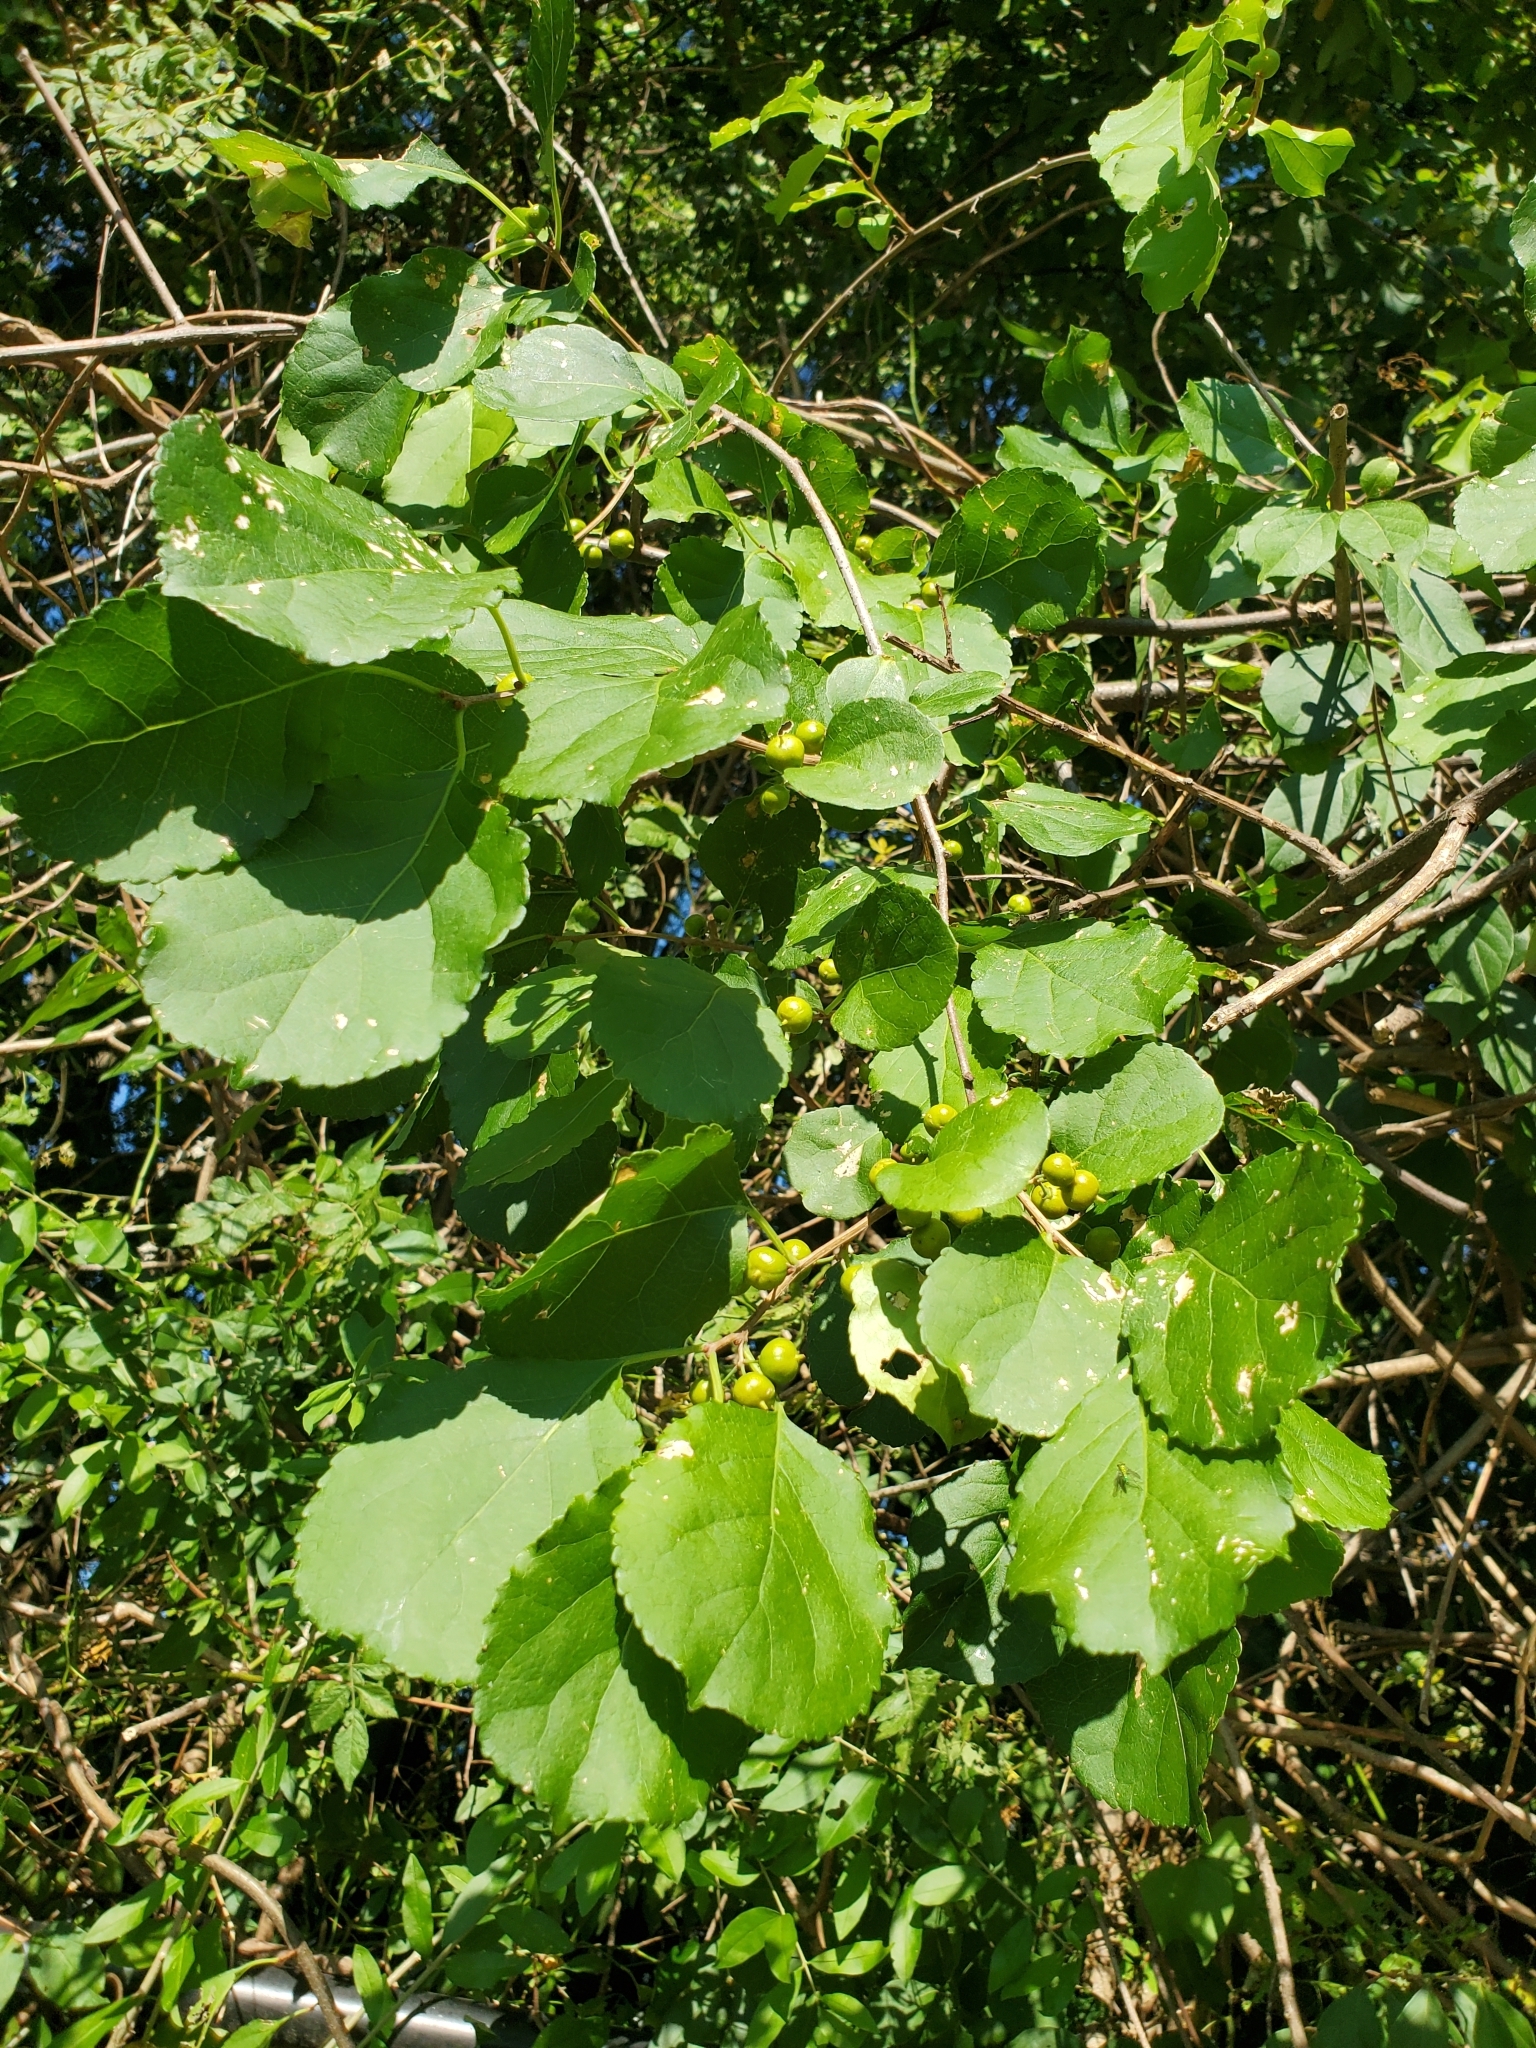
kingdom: Plantae
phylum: Tracheophyta
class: Magnoliopsida
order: Celastrales
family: Celastraceae
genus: Celastrus
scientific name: Celastrus orbiculatus
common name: Oriental bittersweet
